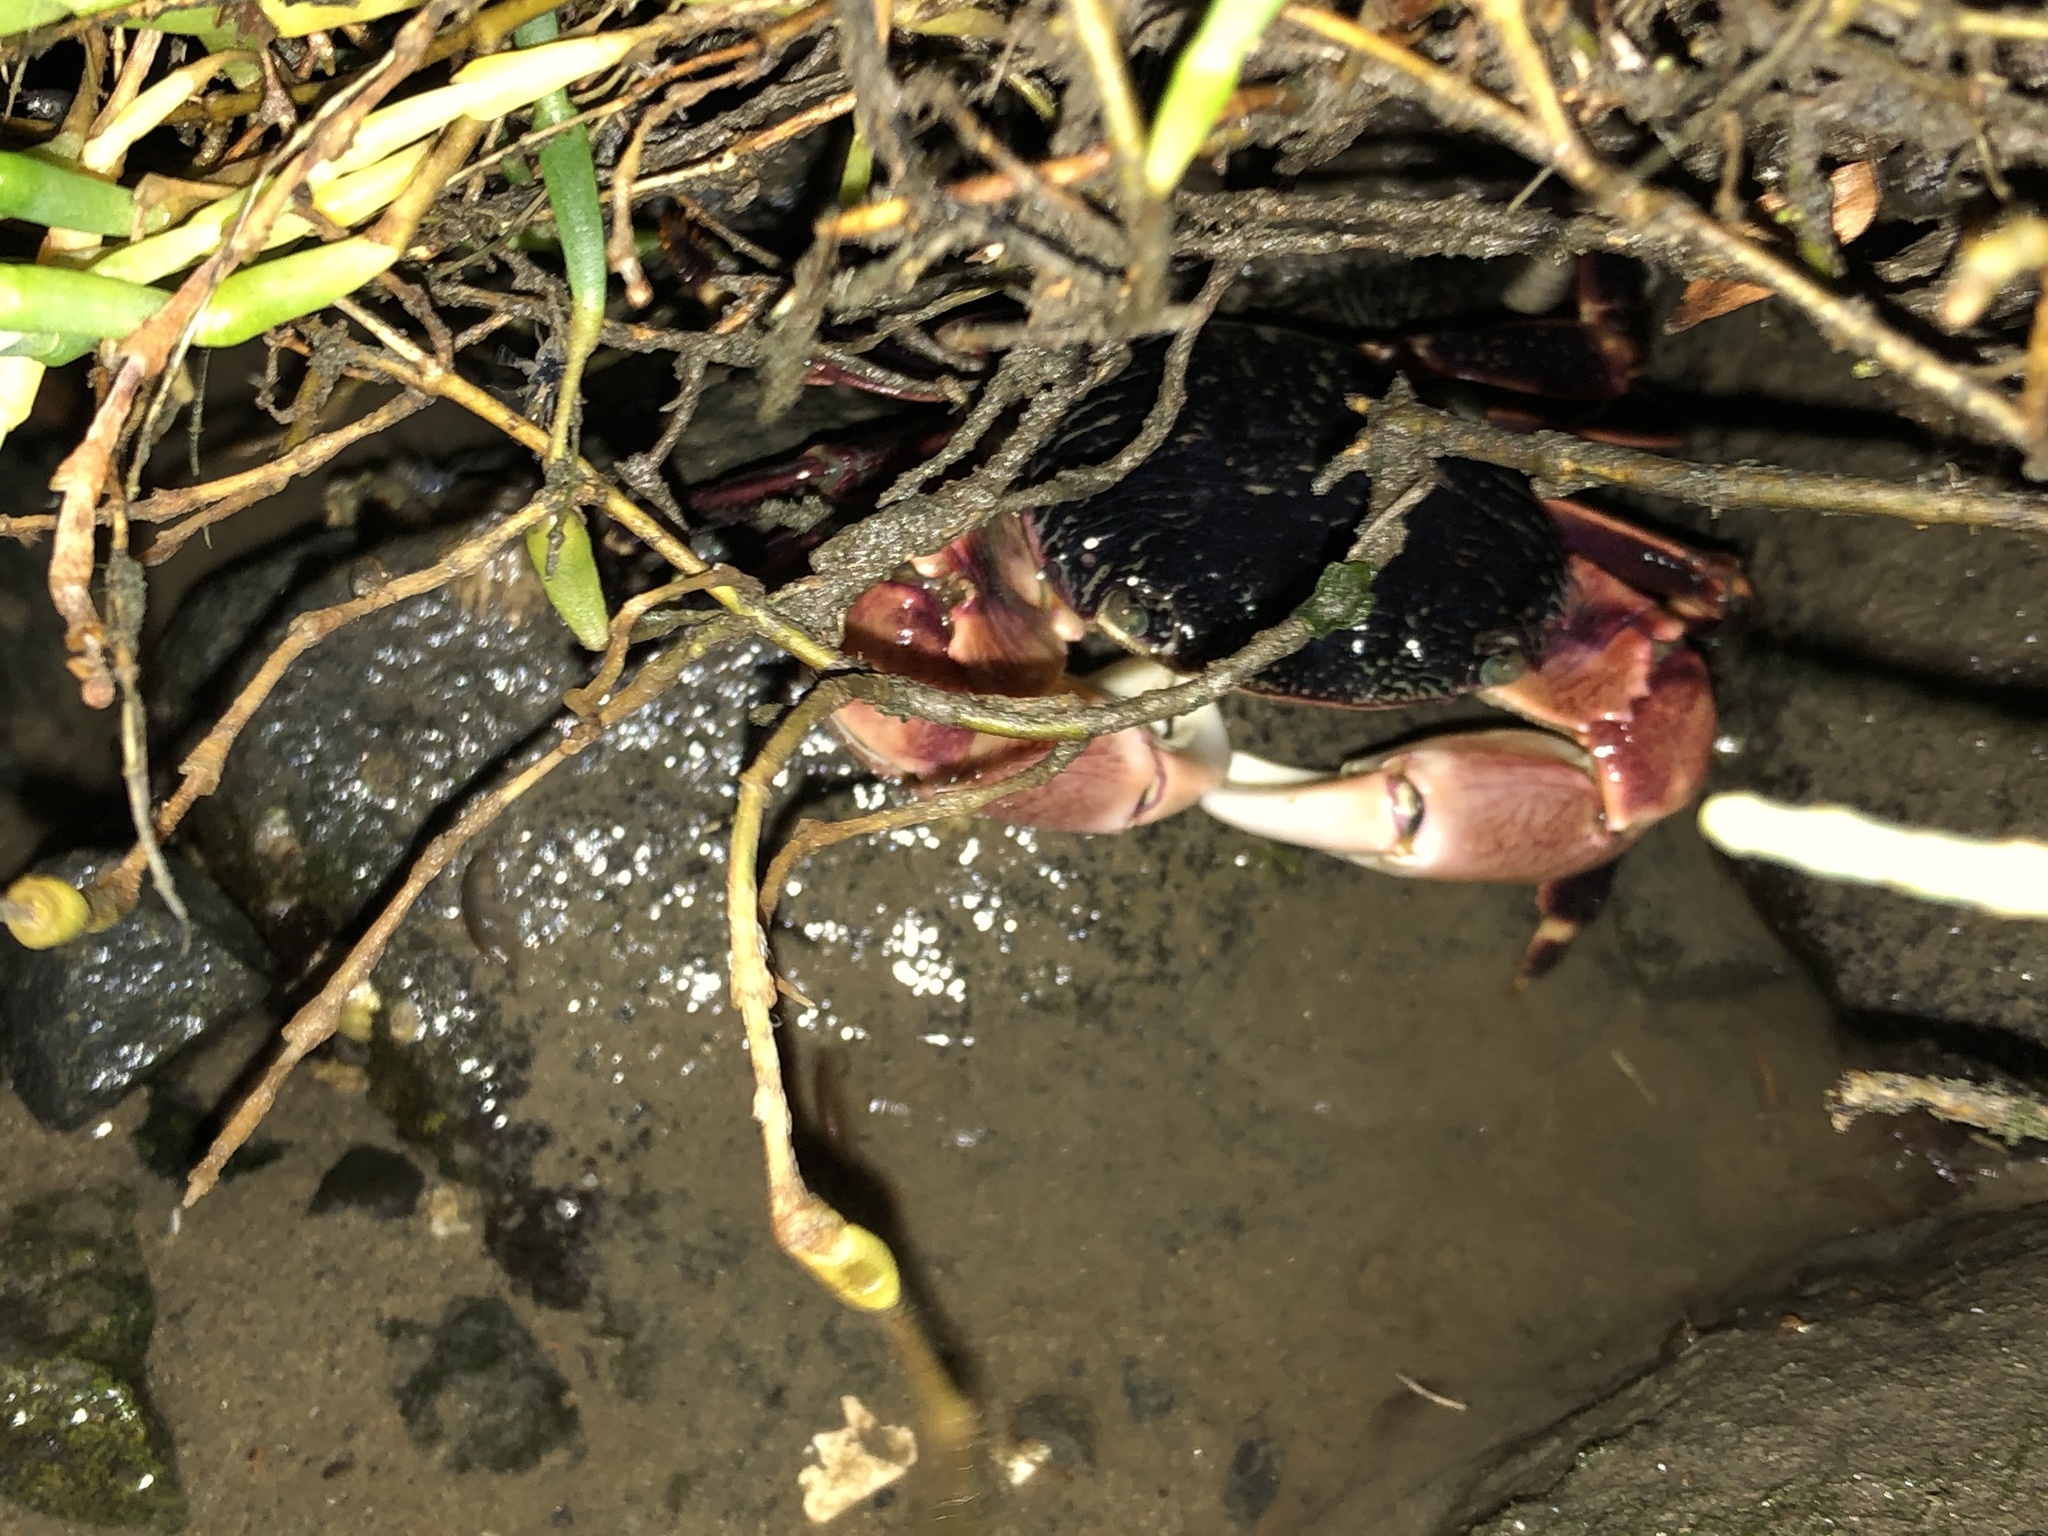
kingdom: Animalia
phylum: Arthropoda
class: Malacostraca
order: Decapoda
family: Grapsidae
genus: Pachygrapsus
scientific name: Pachygrapsus crassipes
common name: Striped shore crab
